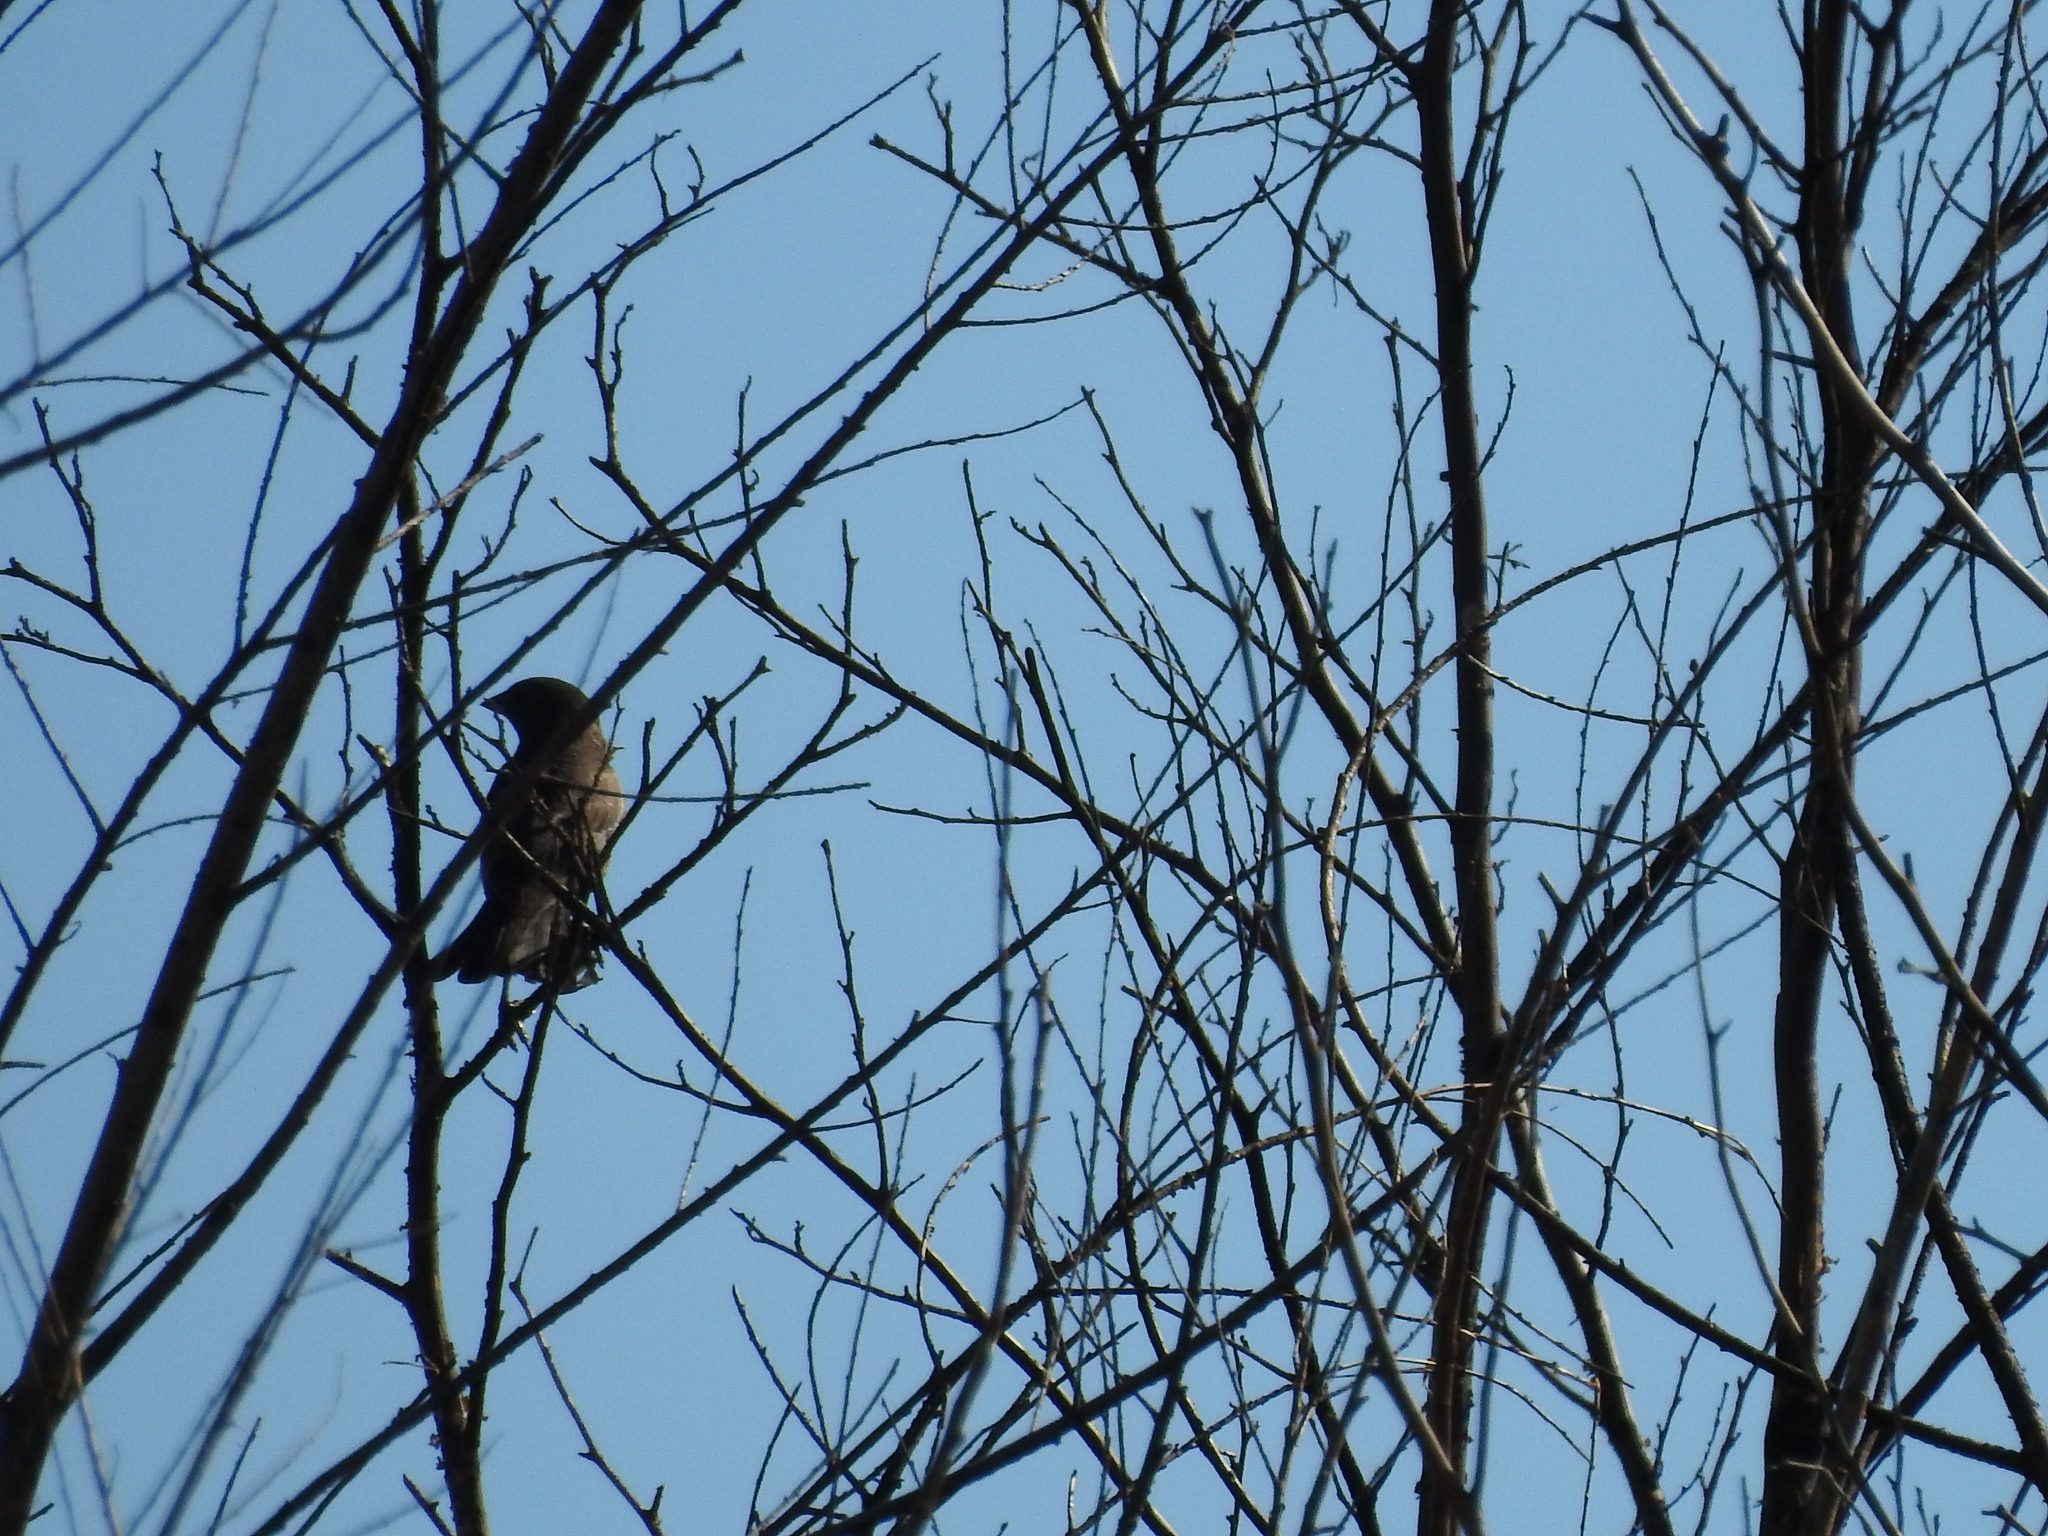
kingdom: Animalia
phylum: Chordata
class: Aves
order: Passeriformes
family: Icteridae
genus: Molothrus
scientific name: Molothrus bonariensis
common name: Shiny cowbird
